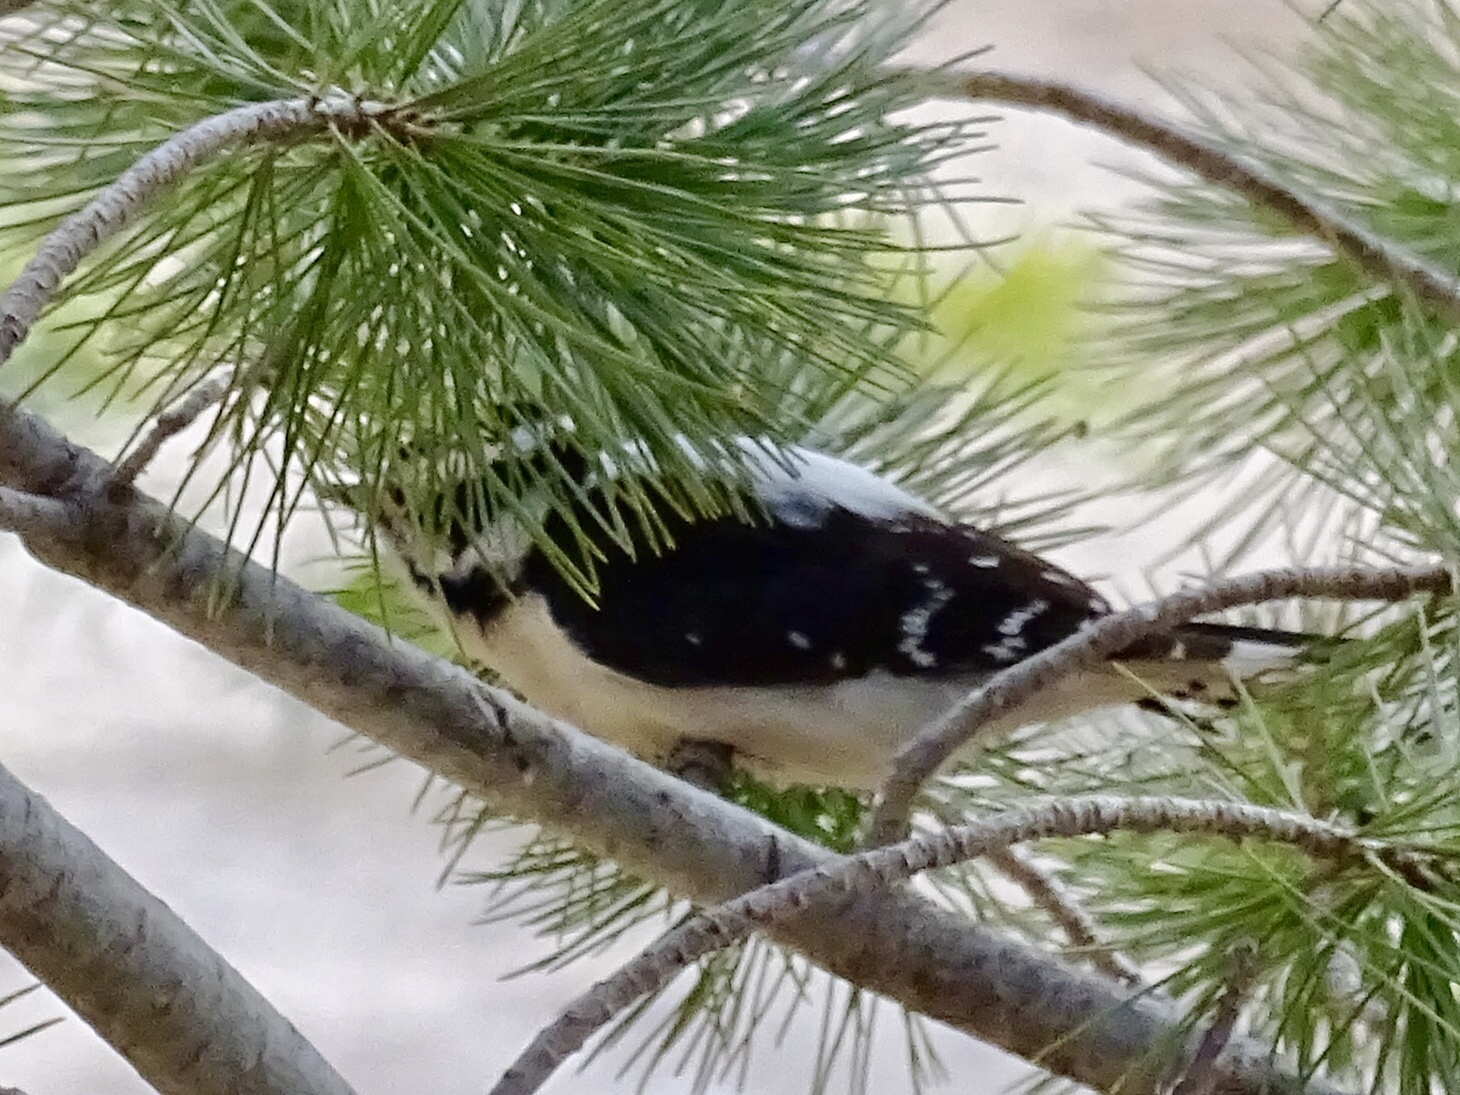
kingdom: Animalia
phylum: Chordata
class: Aves
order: Piciformes
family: Picidae
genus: Leuconotopicus
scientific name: Leuconotopicus villosus
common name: Hairy woodpecker
